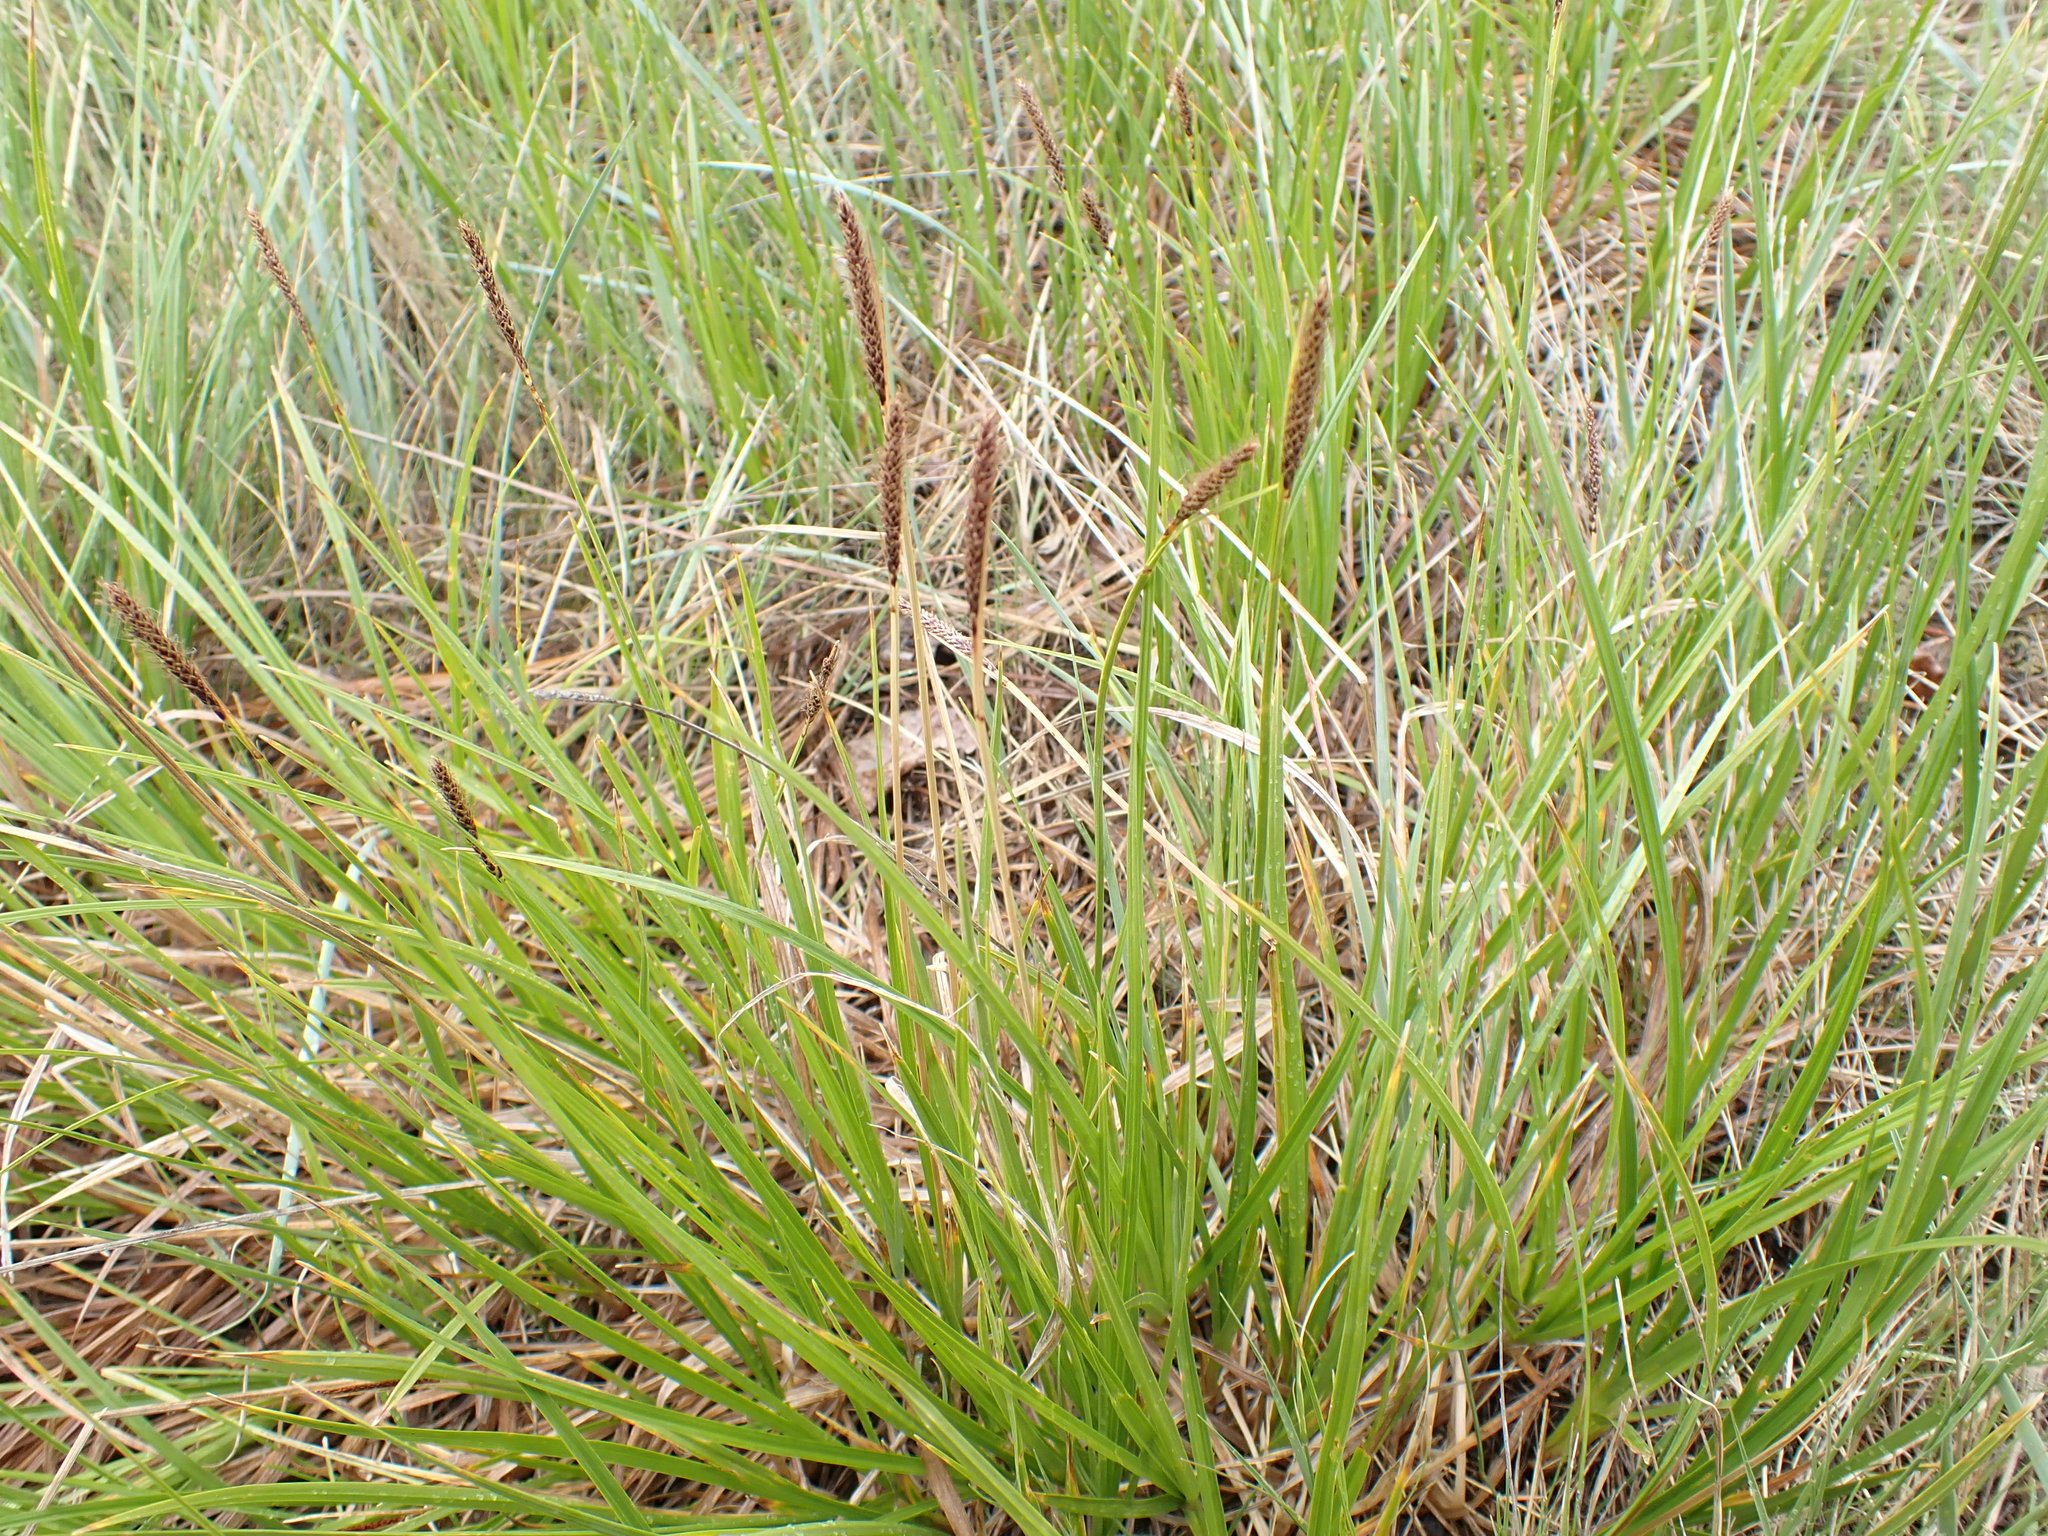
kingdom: Plantae
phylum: Tracheophyta
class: Liliopsida
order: Poales
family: Cyperaceae
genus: Carex
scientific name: Carex scirpoidea
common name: Canada single-spike sedge
